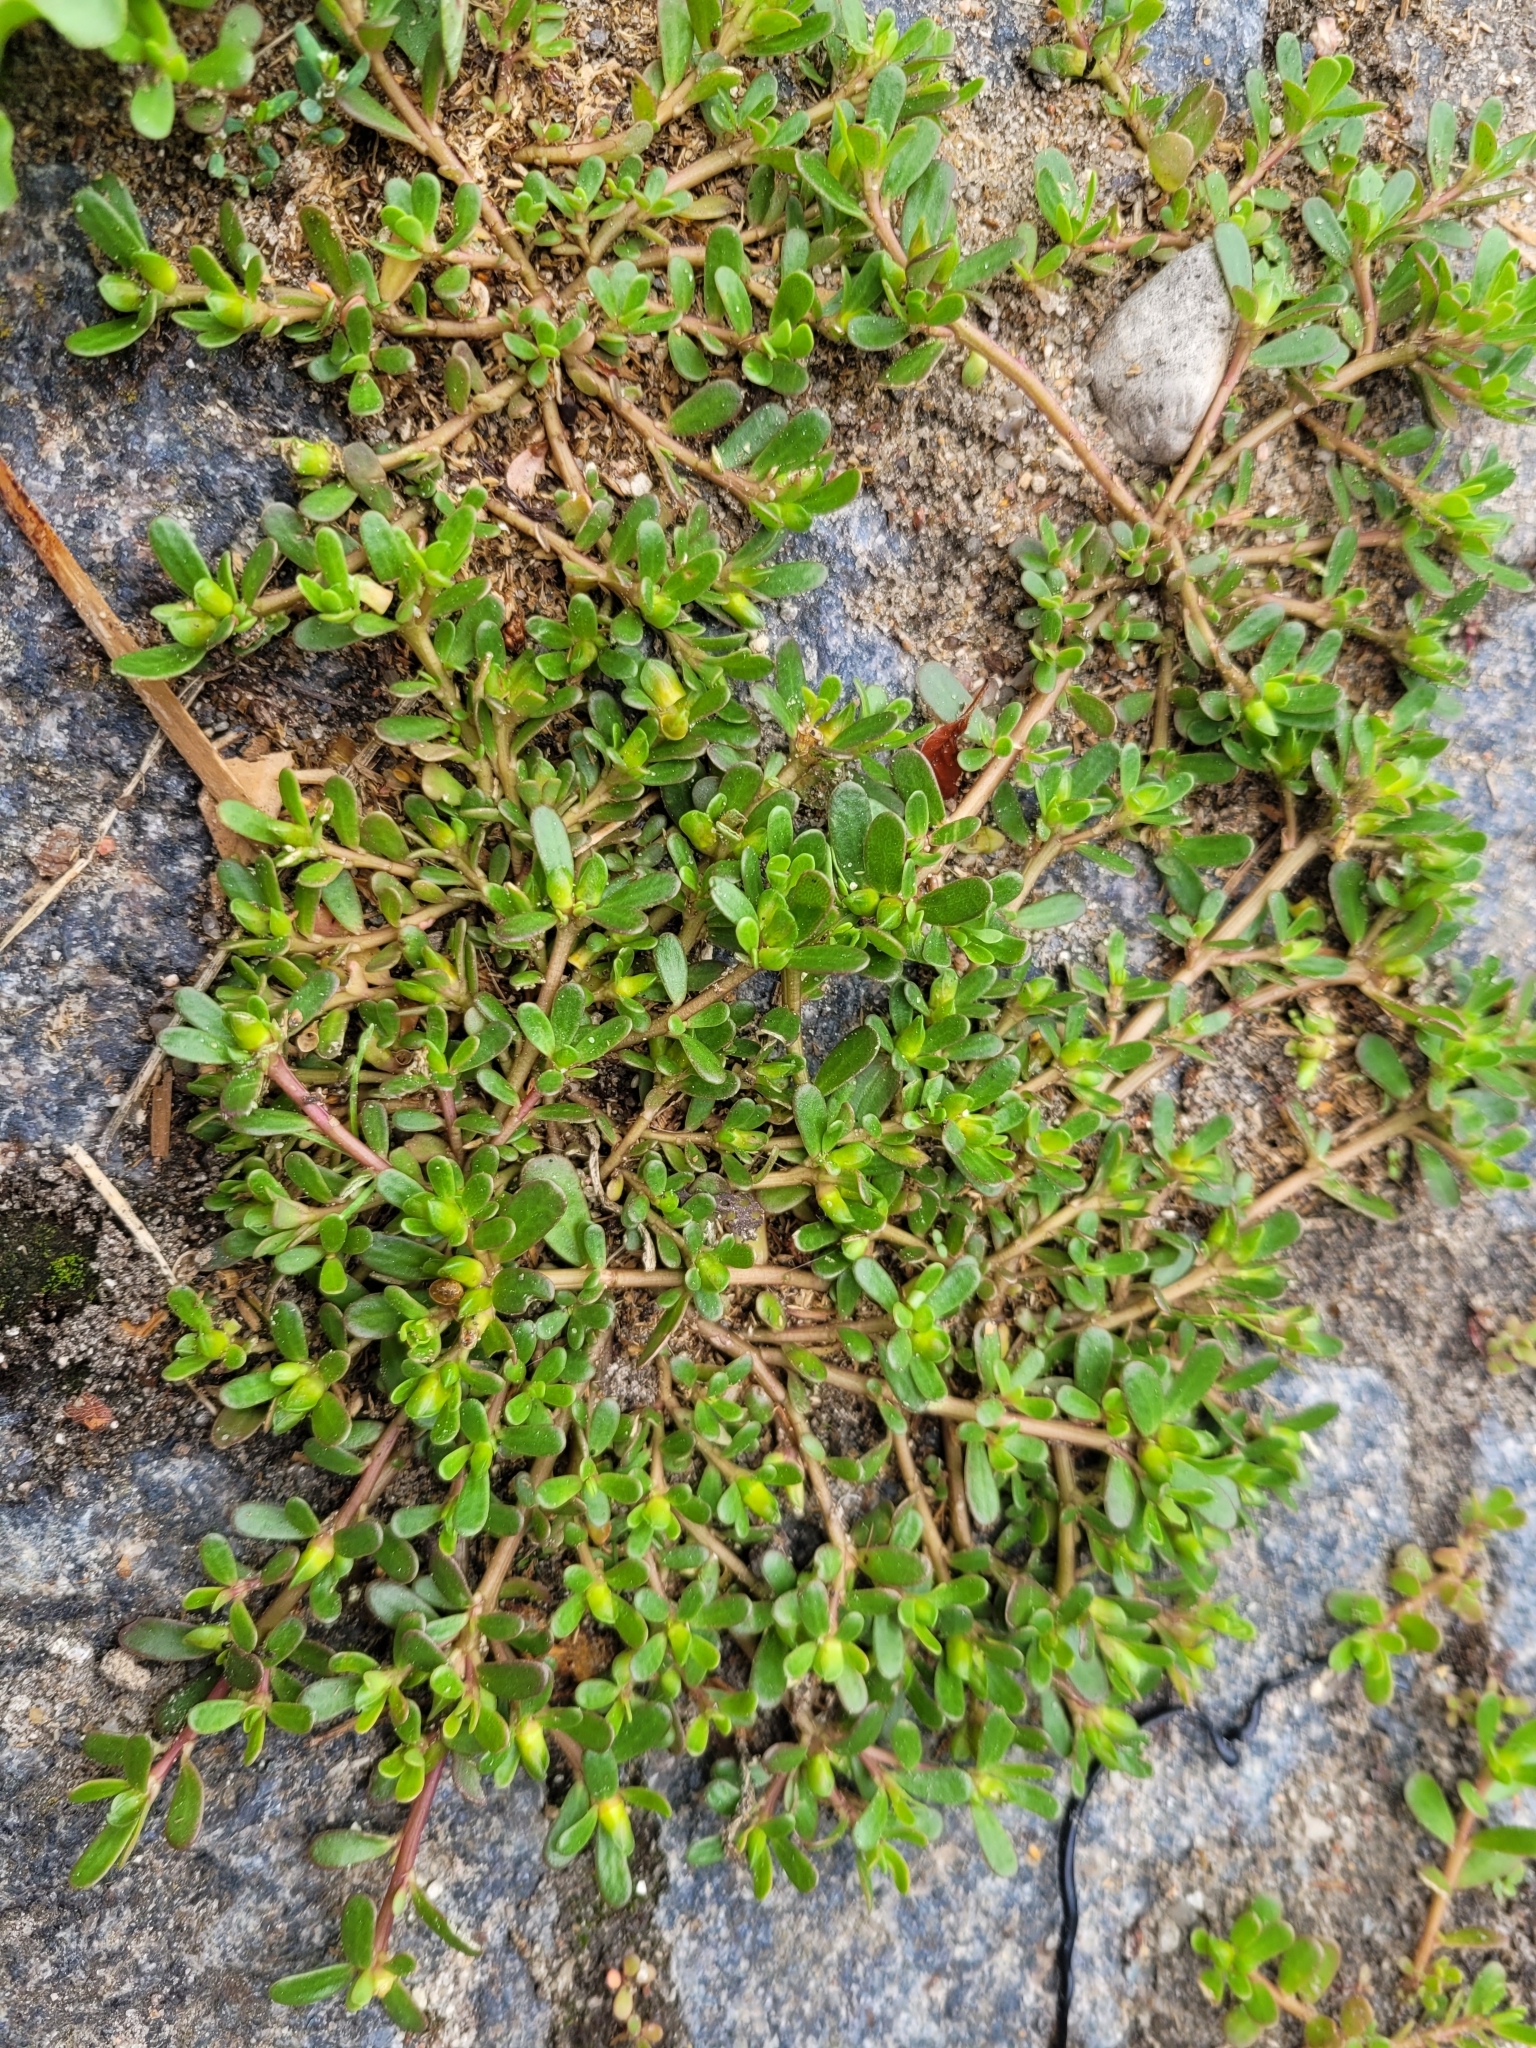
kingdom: Plantae
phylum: Tracheophyta
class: Magnoliopsida
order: Caryophyllales
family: Portulacaceae
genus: Portulaca
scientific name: Portulaca oleracea
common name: Common purslane
